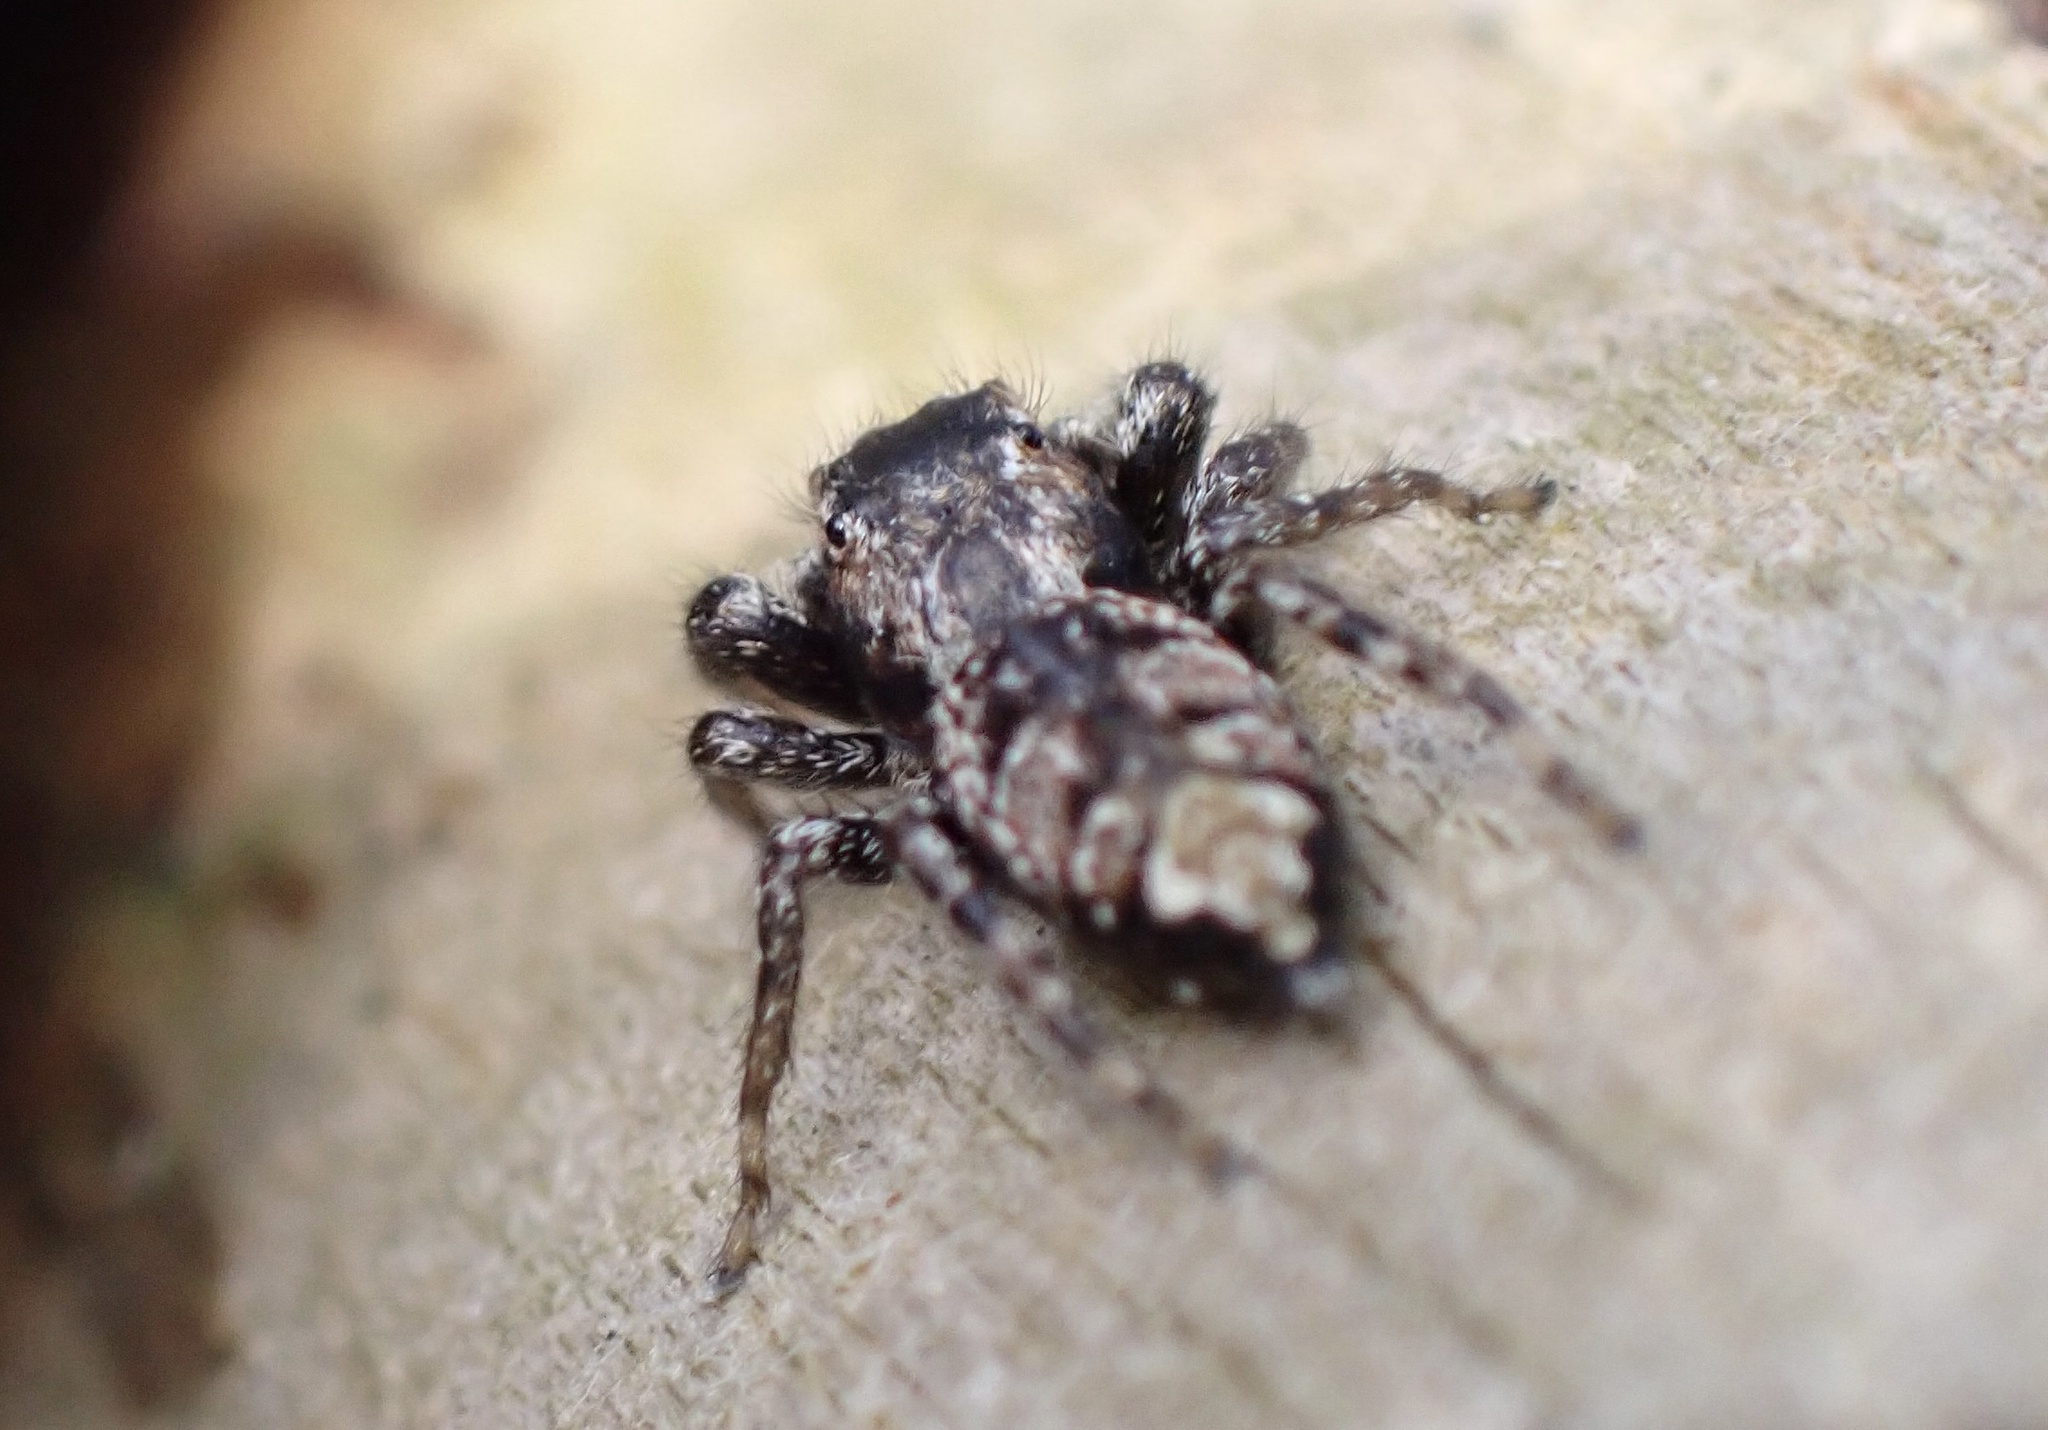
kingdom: Animalia
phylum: Arthropoda
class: Arachnida
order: Araneae
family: Salticidae
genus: Marpissa
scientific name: Marpissa muscosa
